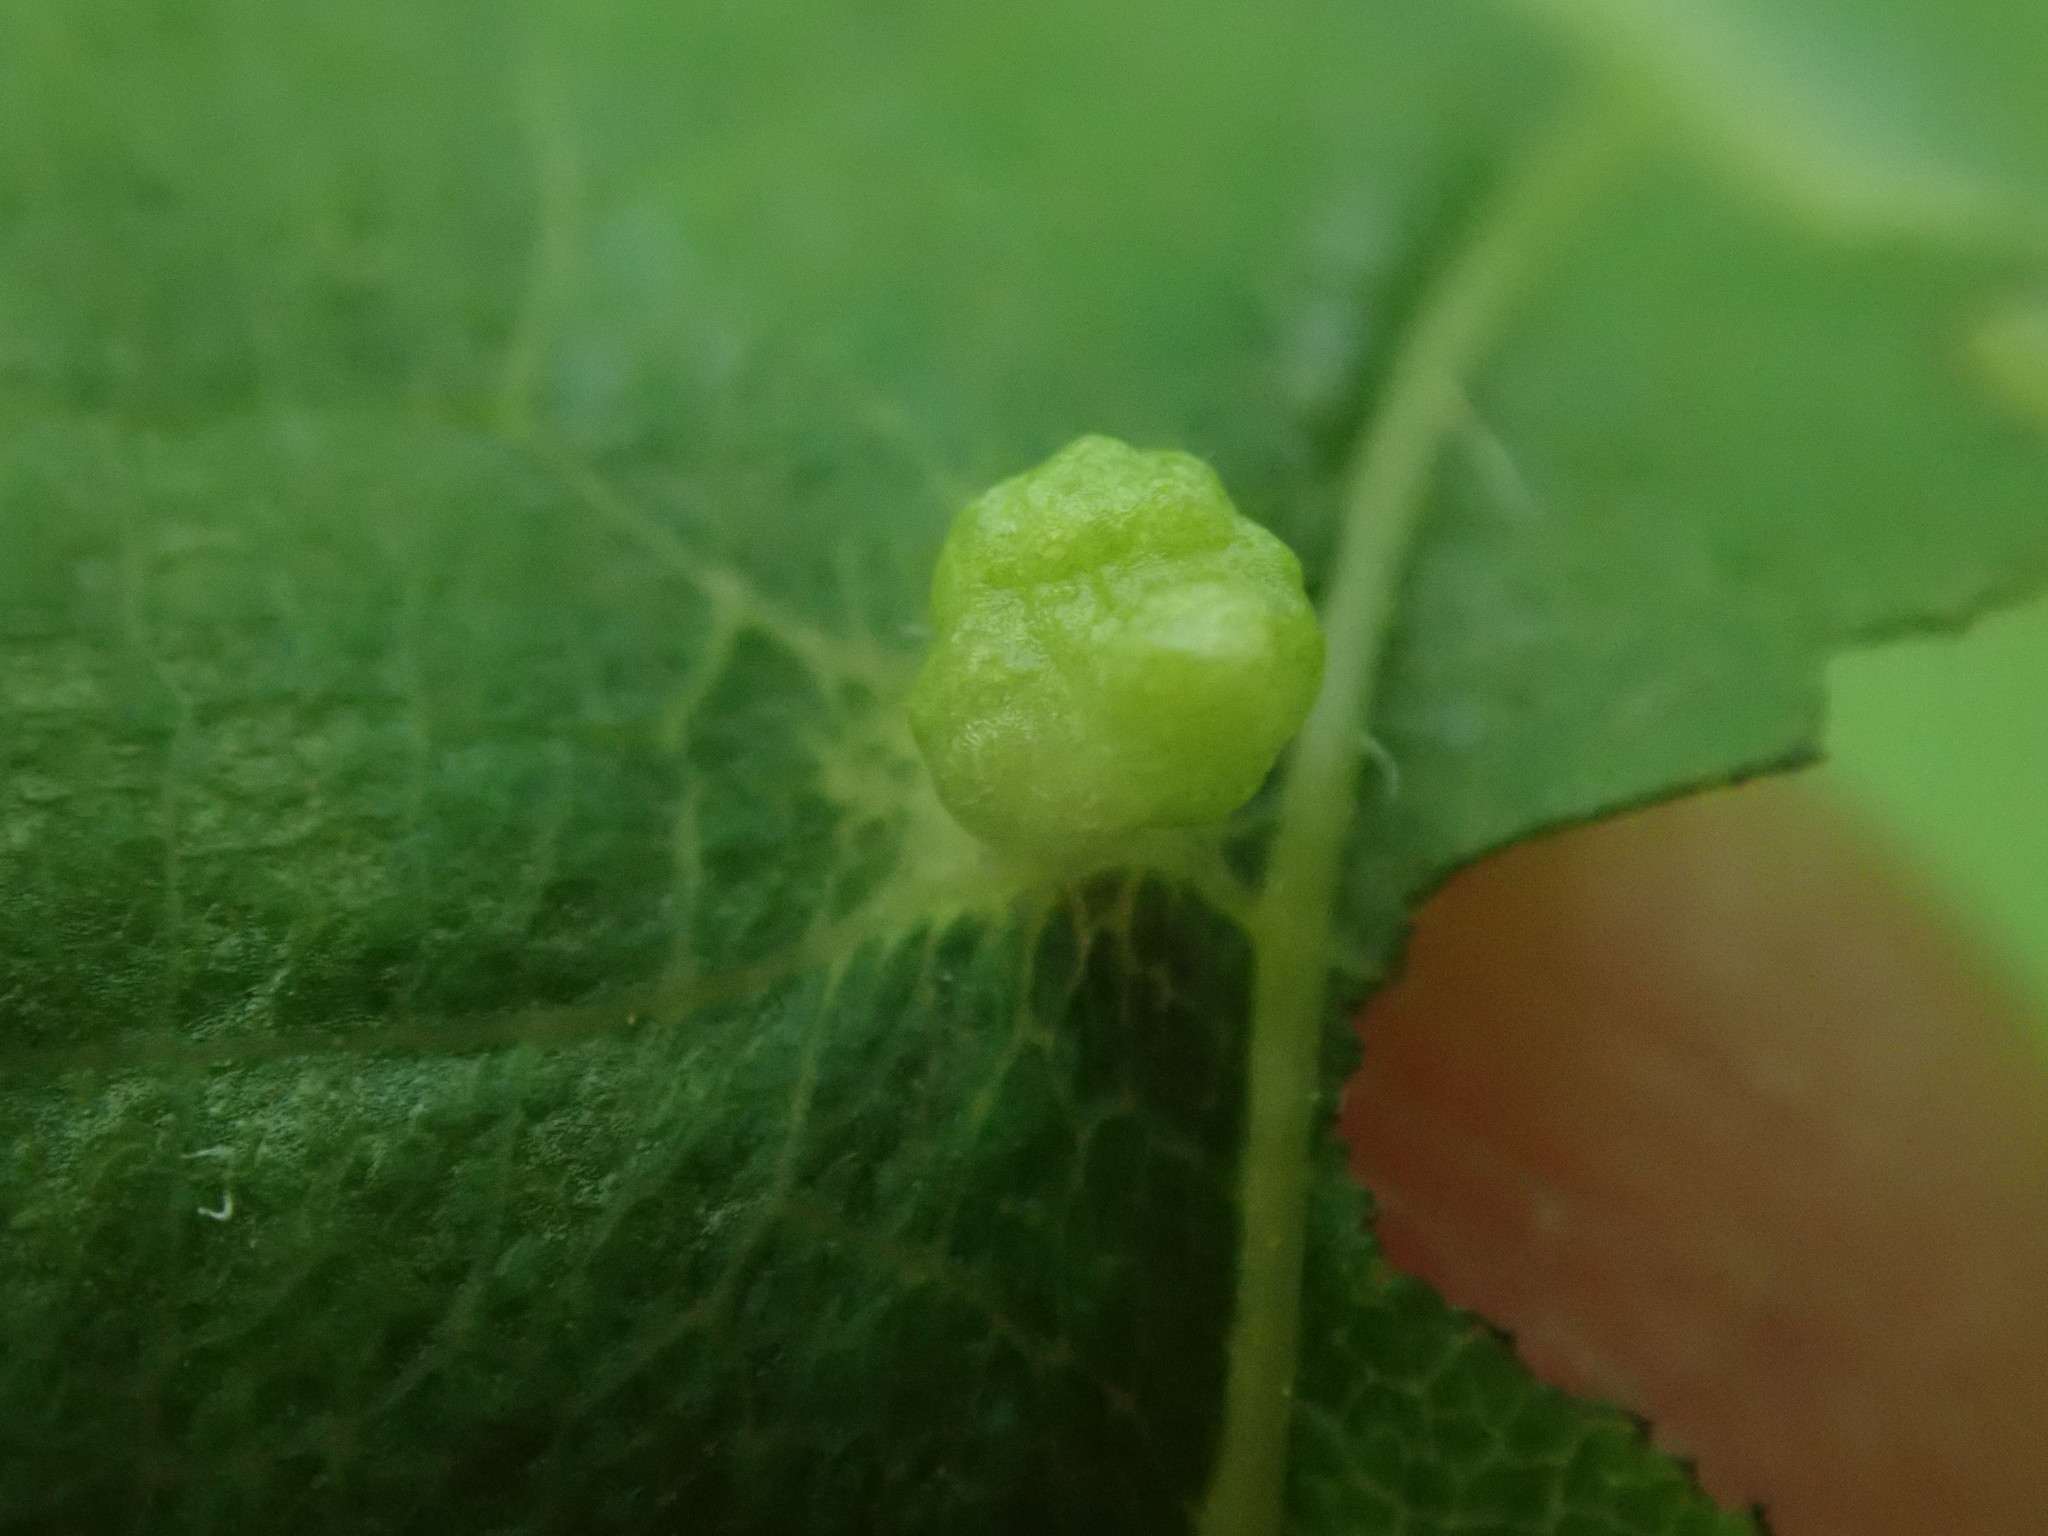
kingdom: Animalia
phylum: Arthropoda
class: Arachnida
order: Trombidiformes
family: Eriophyidae
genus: Eriophyes
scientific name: Eriophyes tiliae
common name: Red nail gall mite
